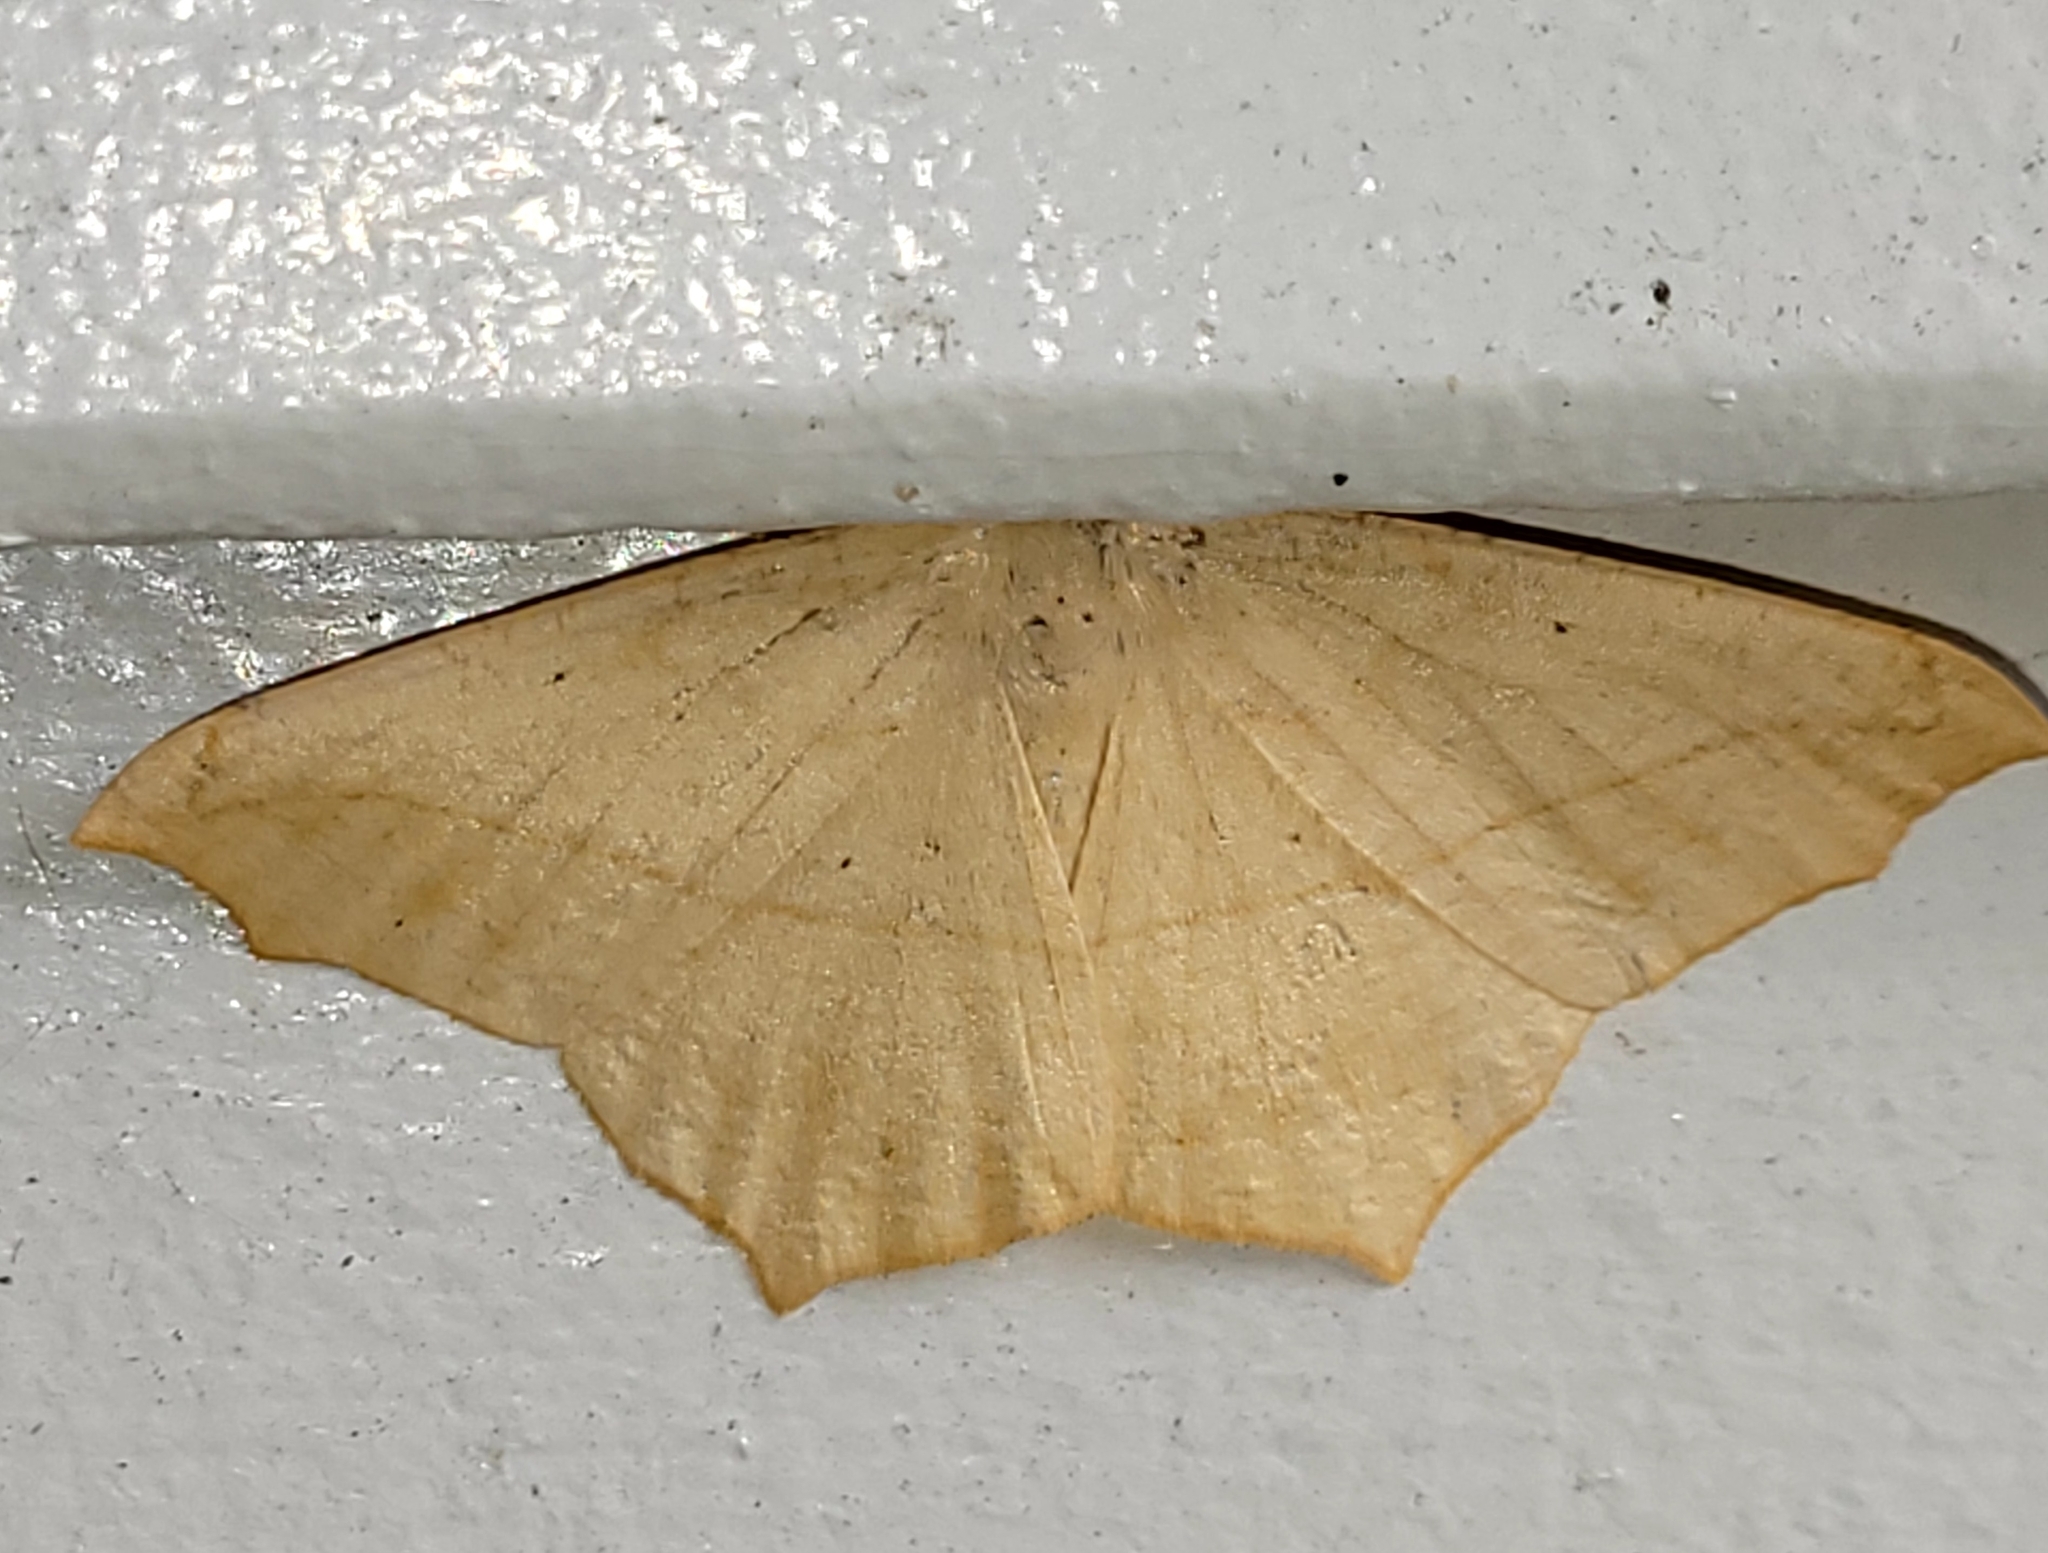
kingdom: Animalia
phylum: Arthropoda
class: Insecta
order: Lepidoptera
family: Geometridae
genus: Prochoerodes
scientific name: Prochoerodes lineola
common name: Large maple spanworm
